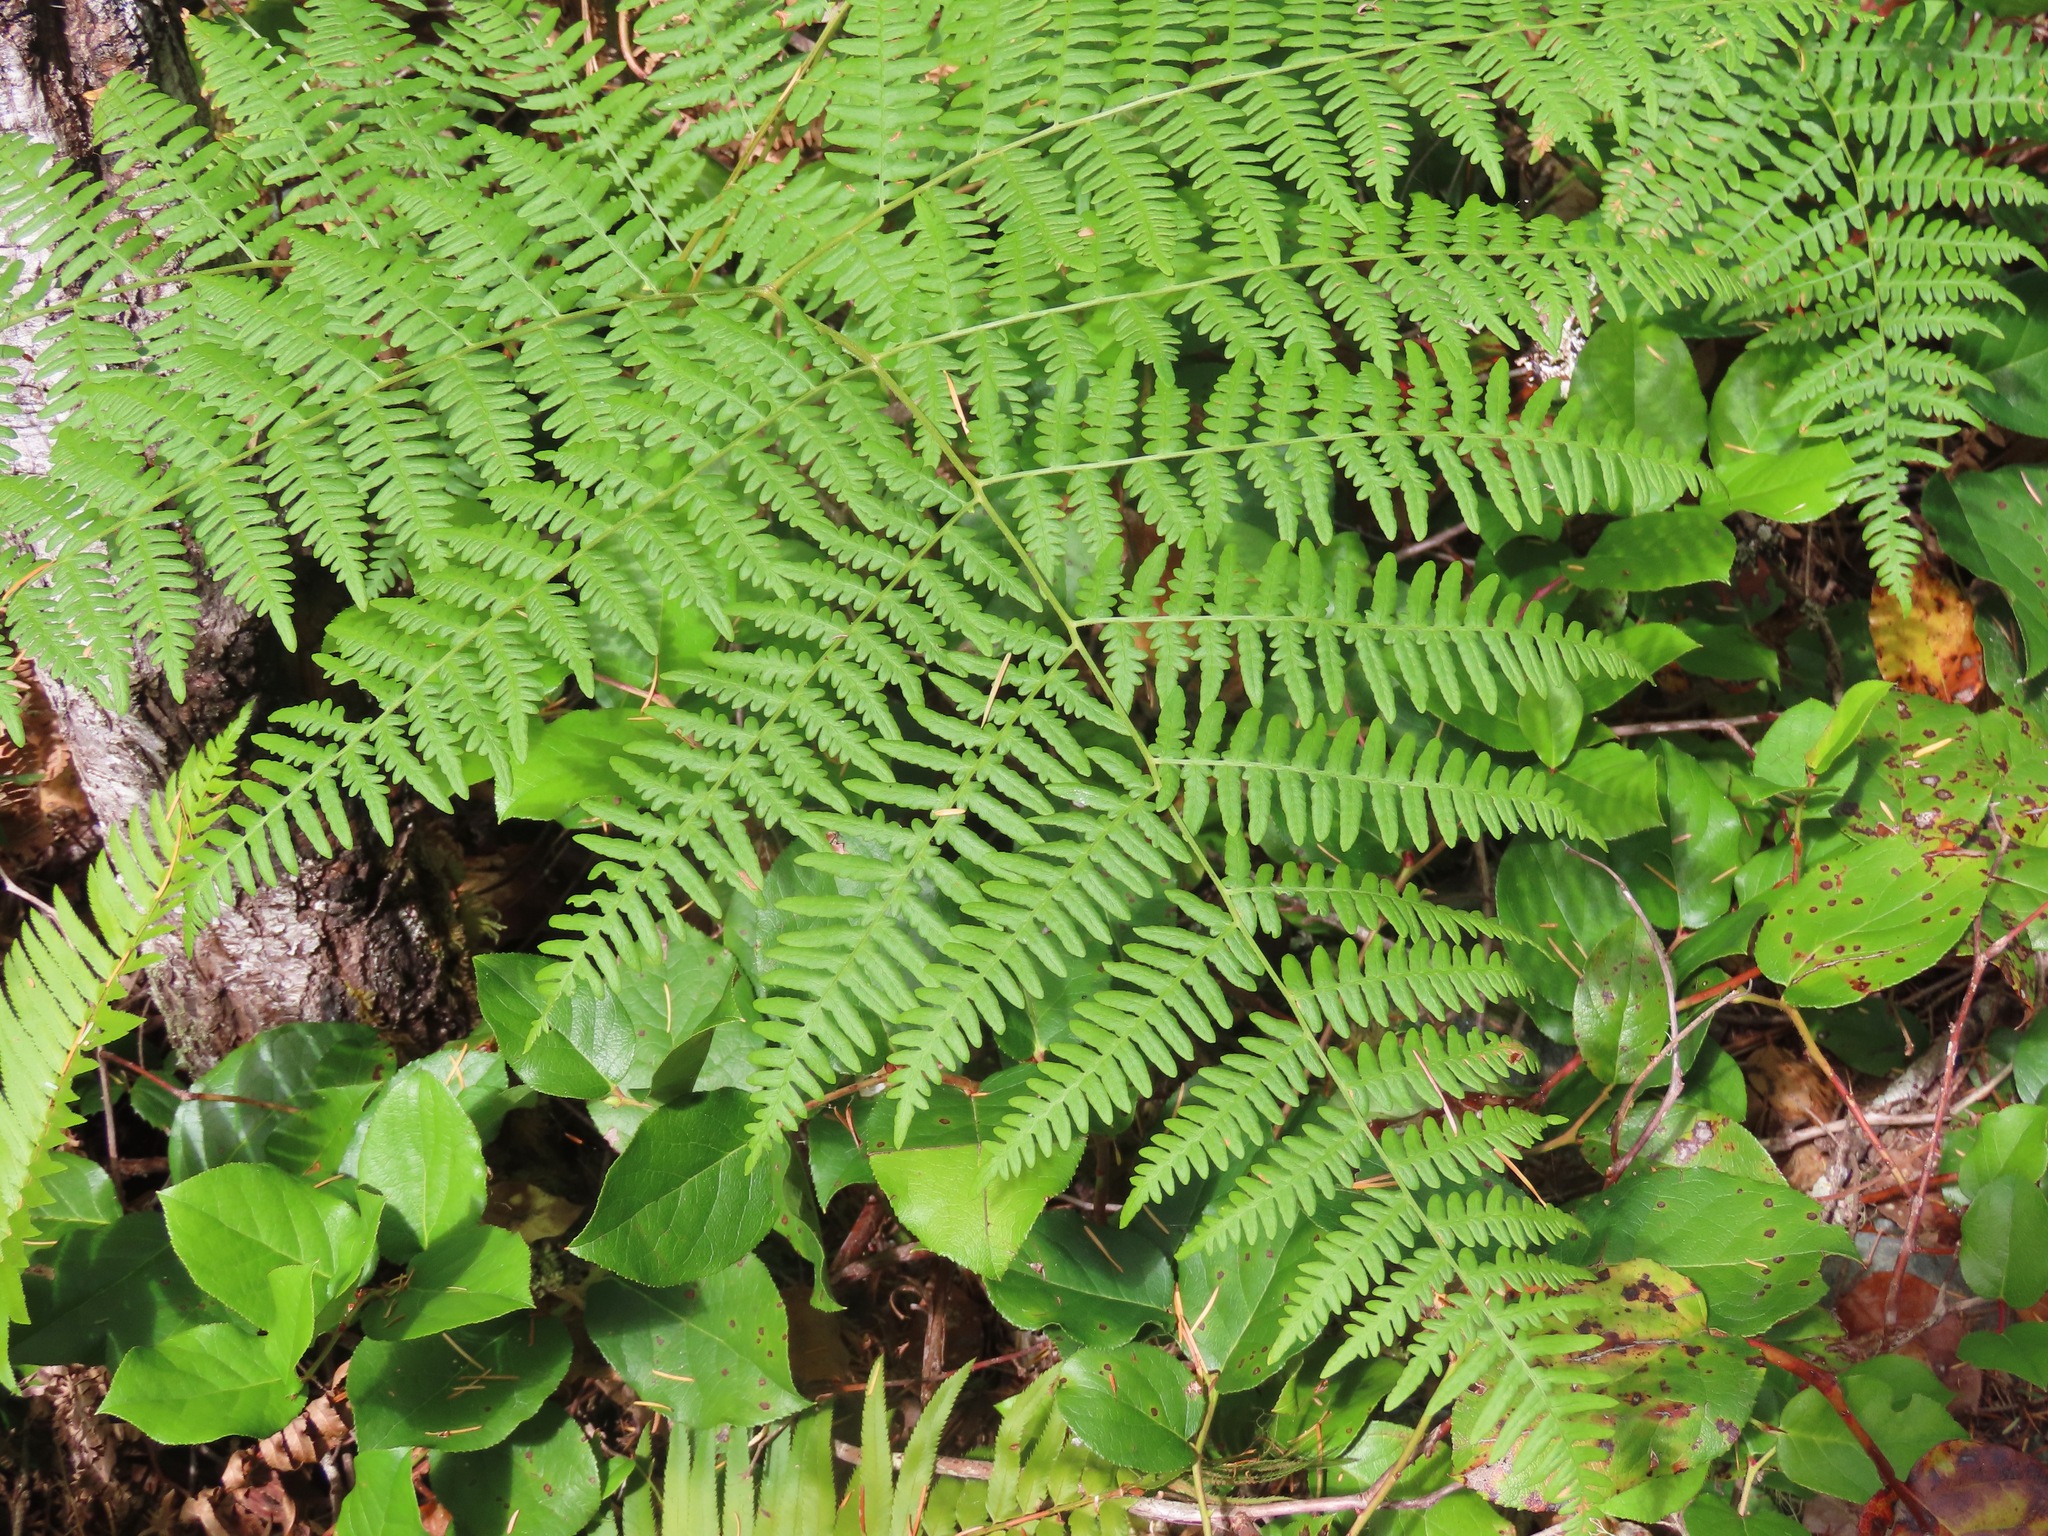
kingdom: Plantae
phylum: Tracheophyta
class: Polypodiopsida
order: Polypodiales
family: Dennstaedtiaceae
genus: Pteridium
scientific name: Pteridium aquilinum
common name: Bracken
